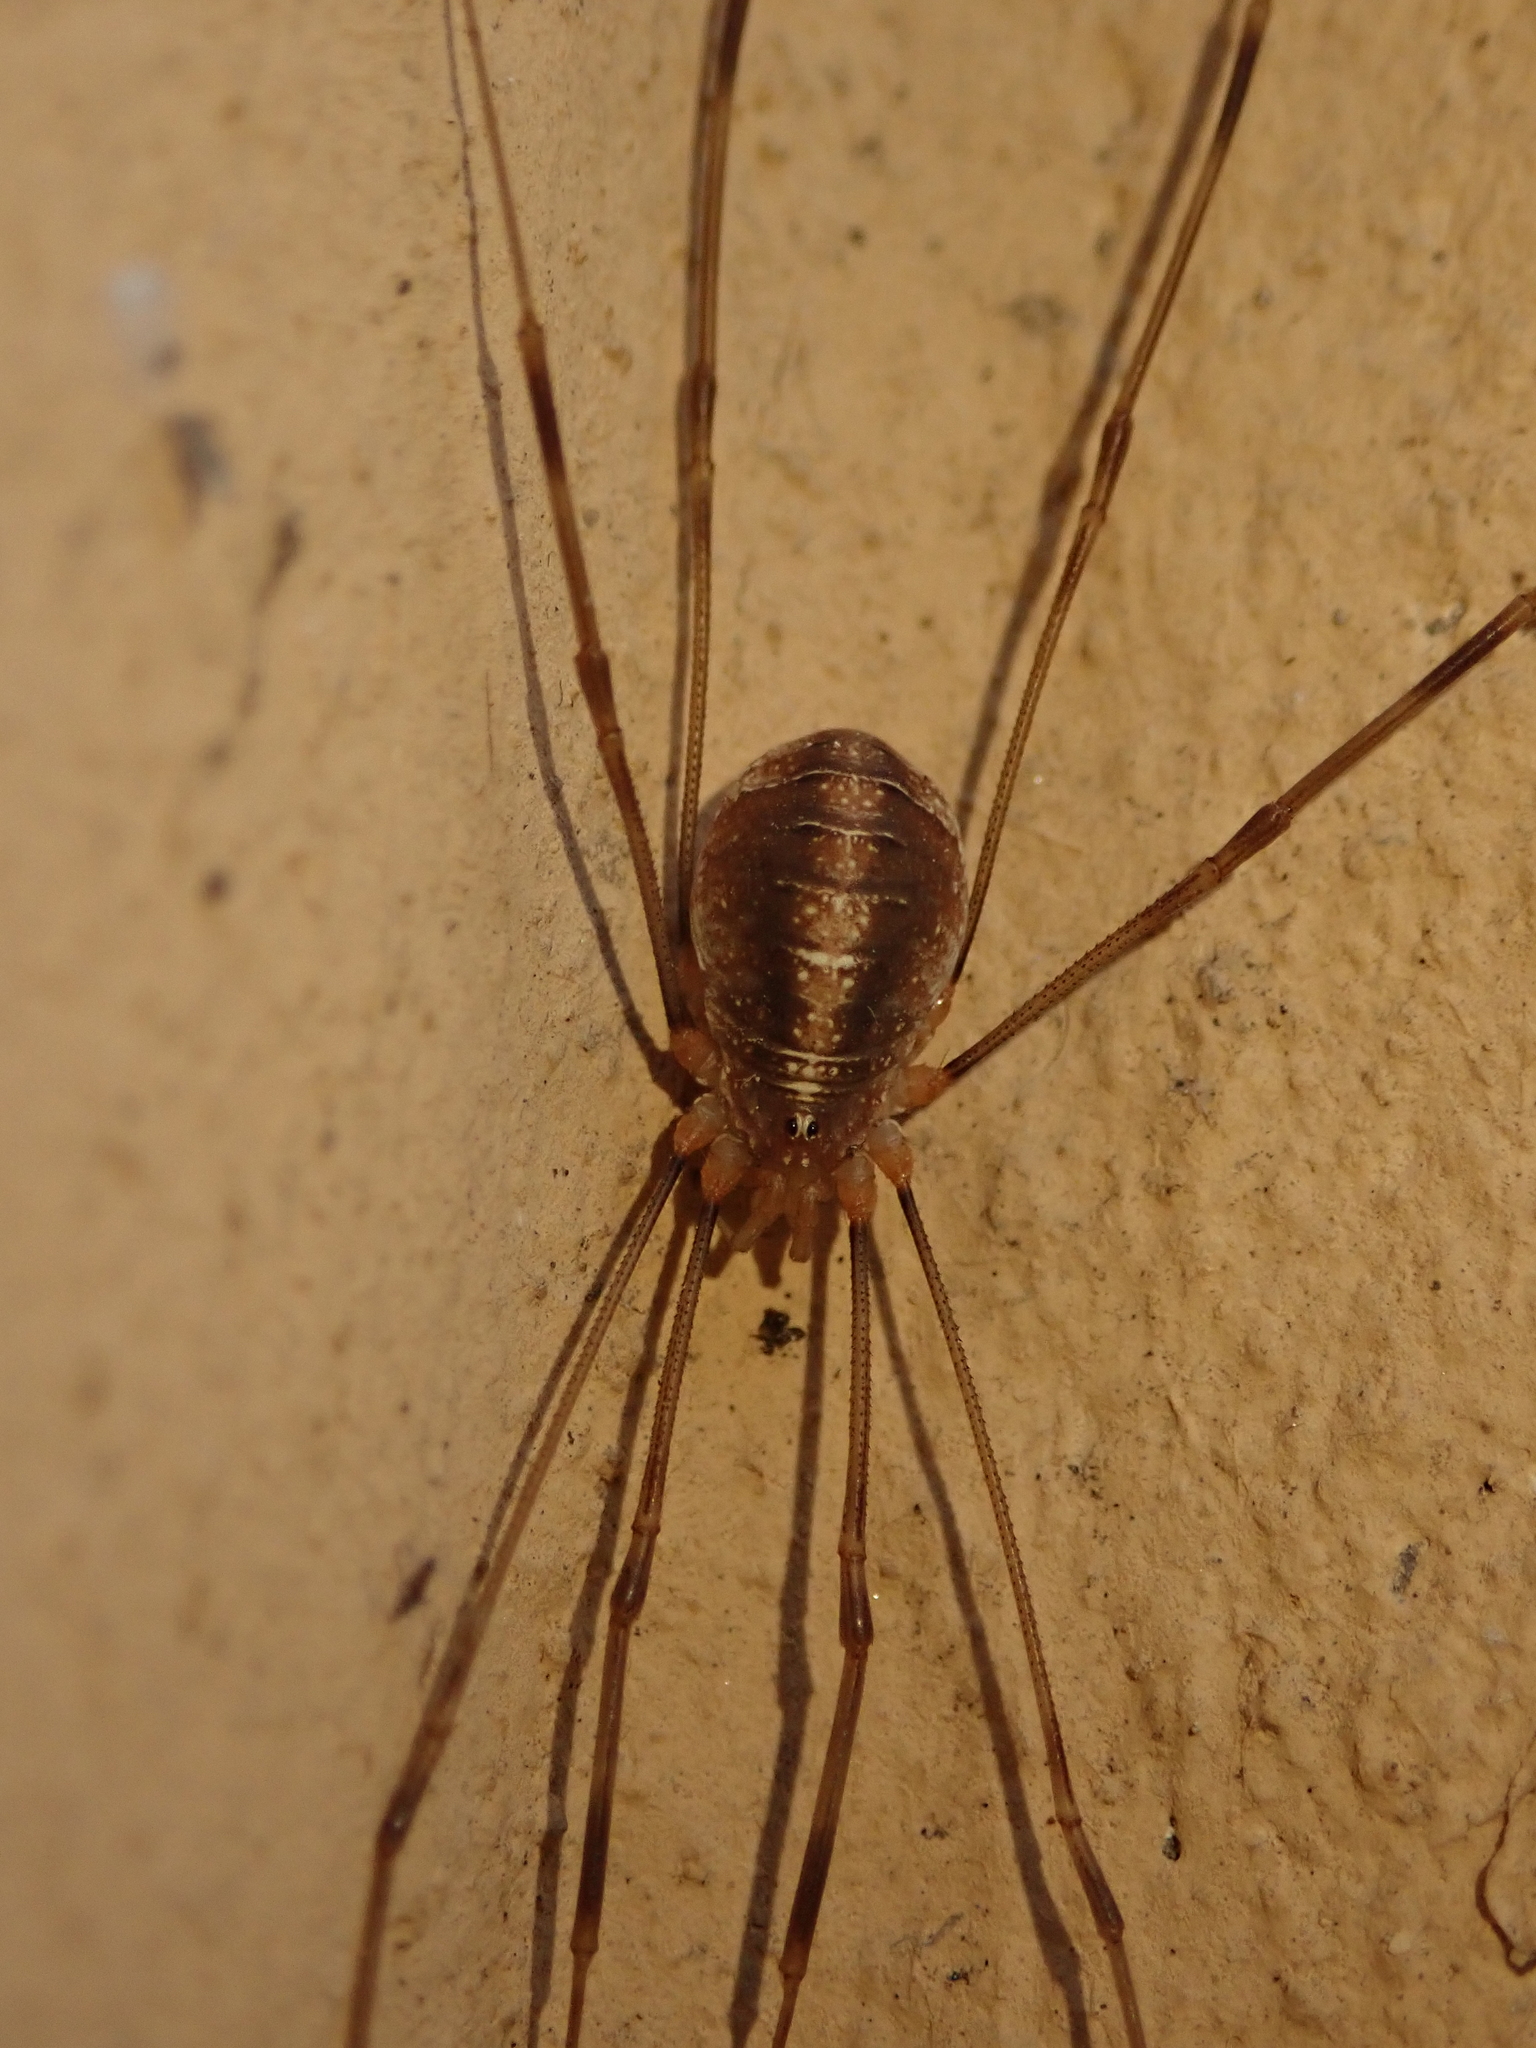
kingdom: Animalia
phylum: Arthropoda
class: Arachnida
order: Opiliones
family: Phalangiidae
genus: Opilio
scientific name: Opilio canestrinii
